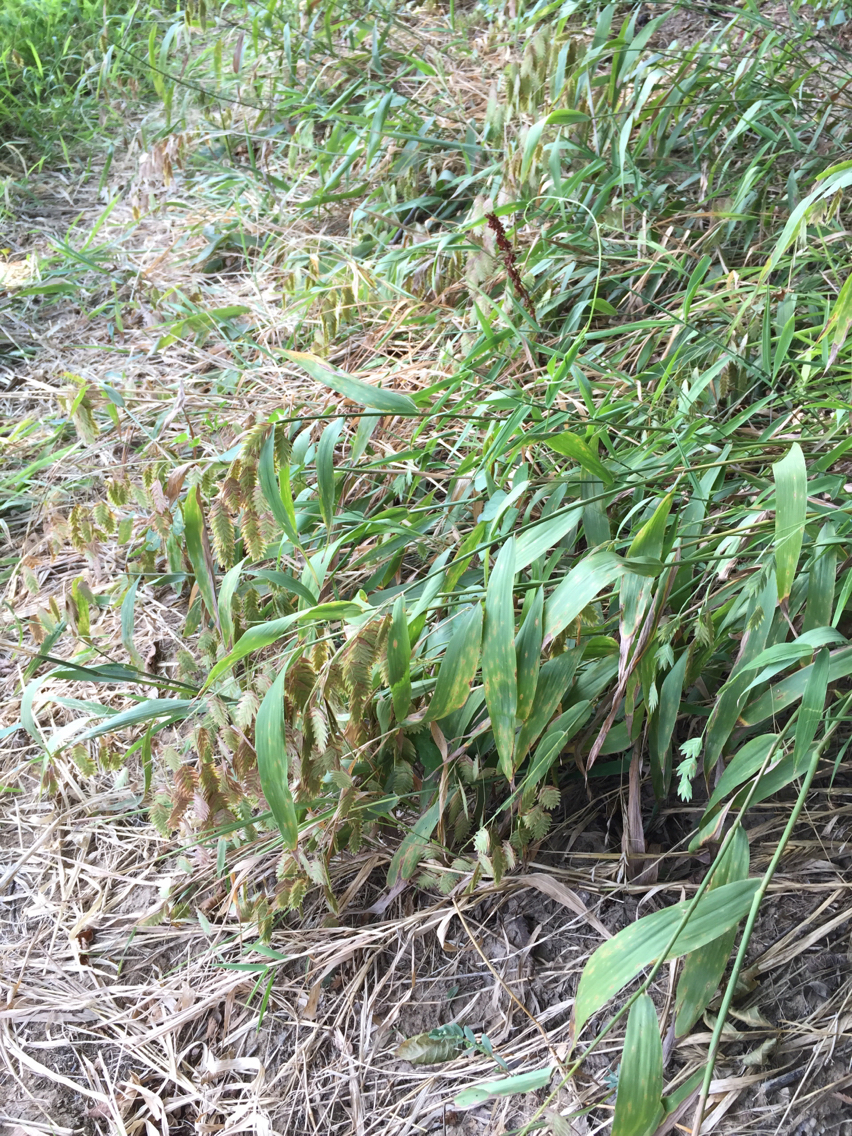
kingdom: Plantae
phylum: Tracheophyta
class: Liliopsida
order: Poales
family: Poaceae
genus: Chasmanthium
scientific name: Chasmanthium latifolium
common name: Broad-leaved chasmanthium
